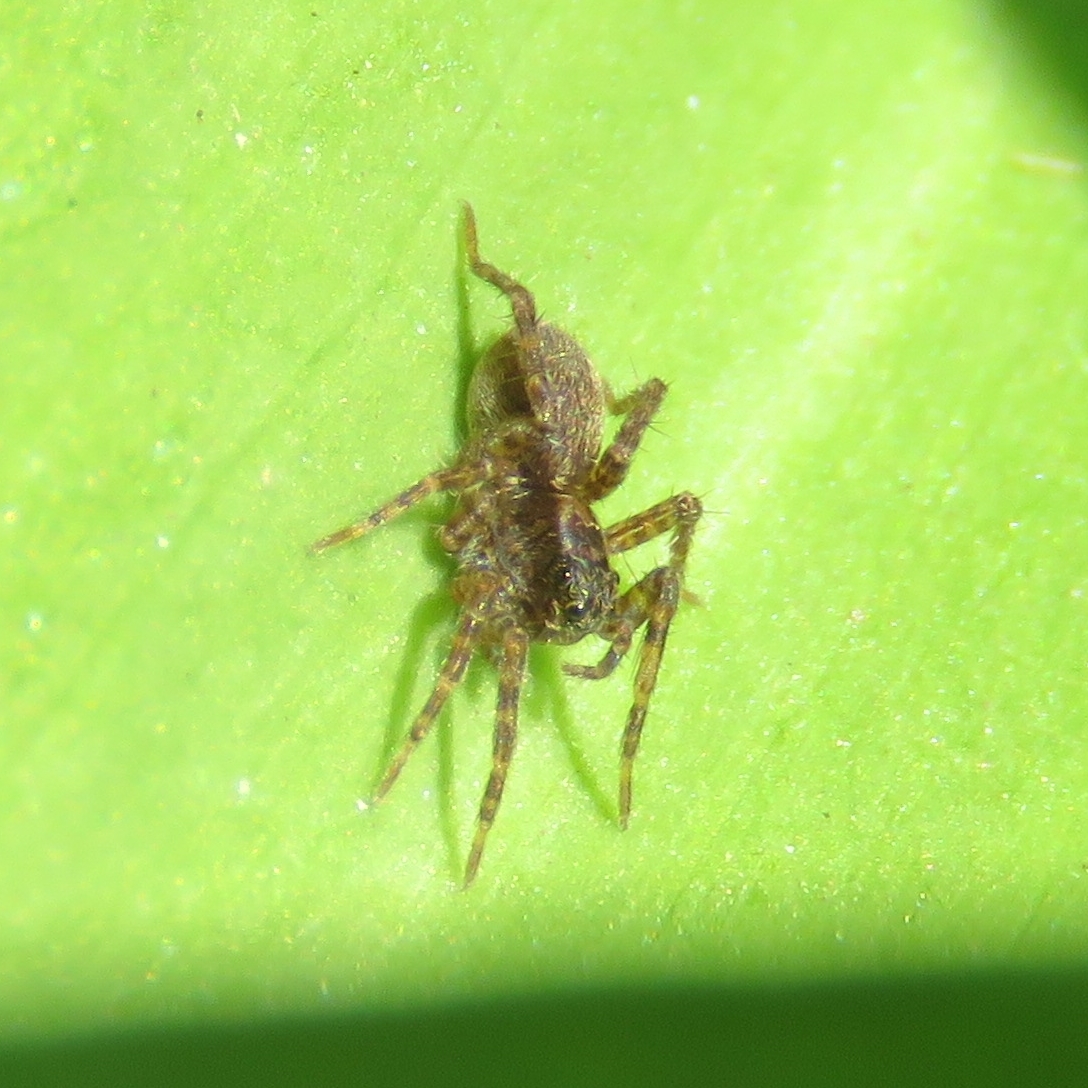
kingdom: Animalia
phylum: Arthropoda
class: Arachnida
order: Araneae
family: Lycosidae
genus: Pardosa
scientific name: Pardosa
